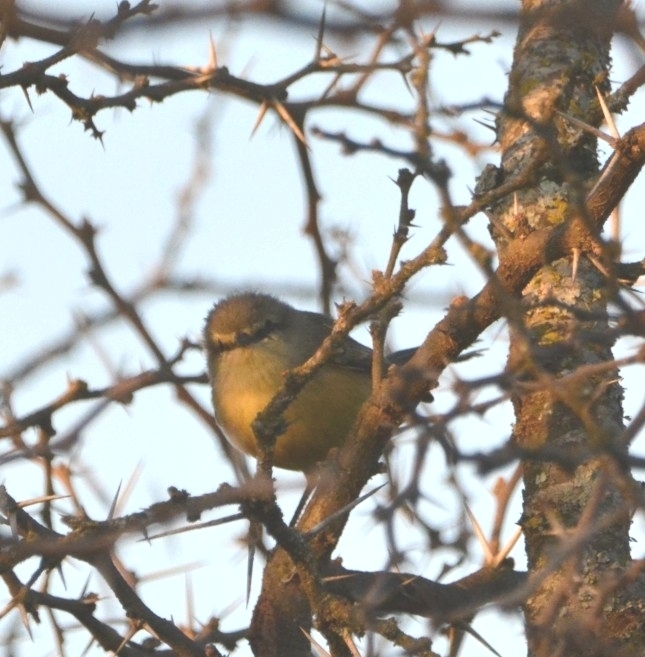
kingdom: Animalia
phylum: Chordata
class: Aves
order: Passeriformes
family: Tyrannidae
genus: Stigmatura
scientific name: Stigmatura budytoides
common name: Greater wagtail-tyrant
